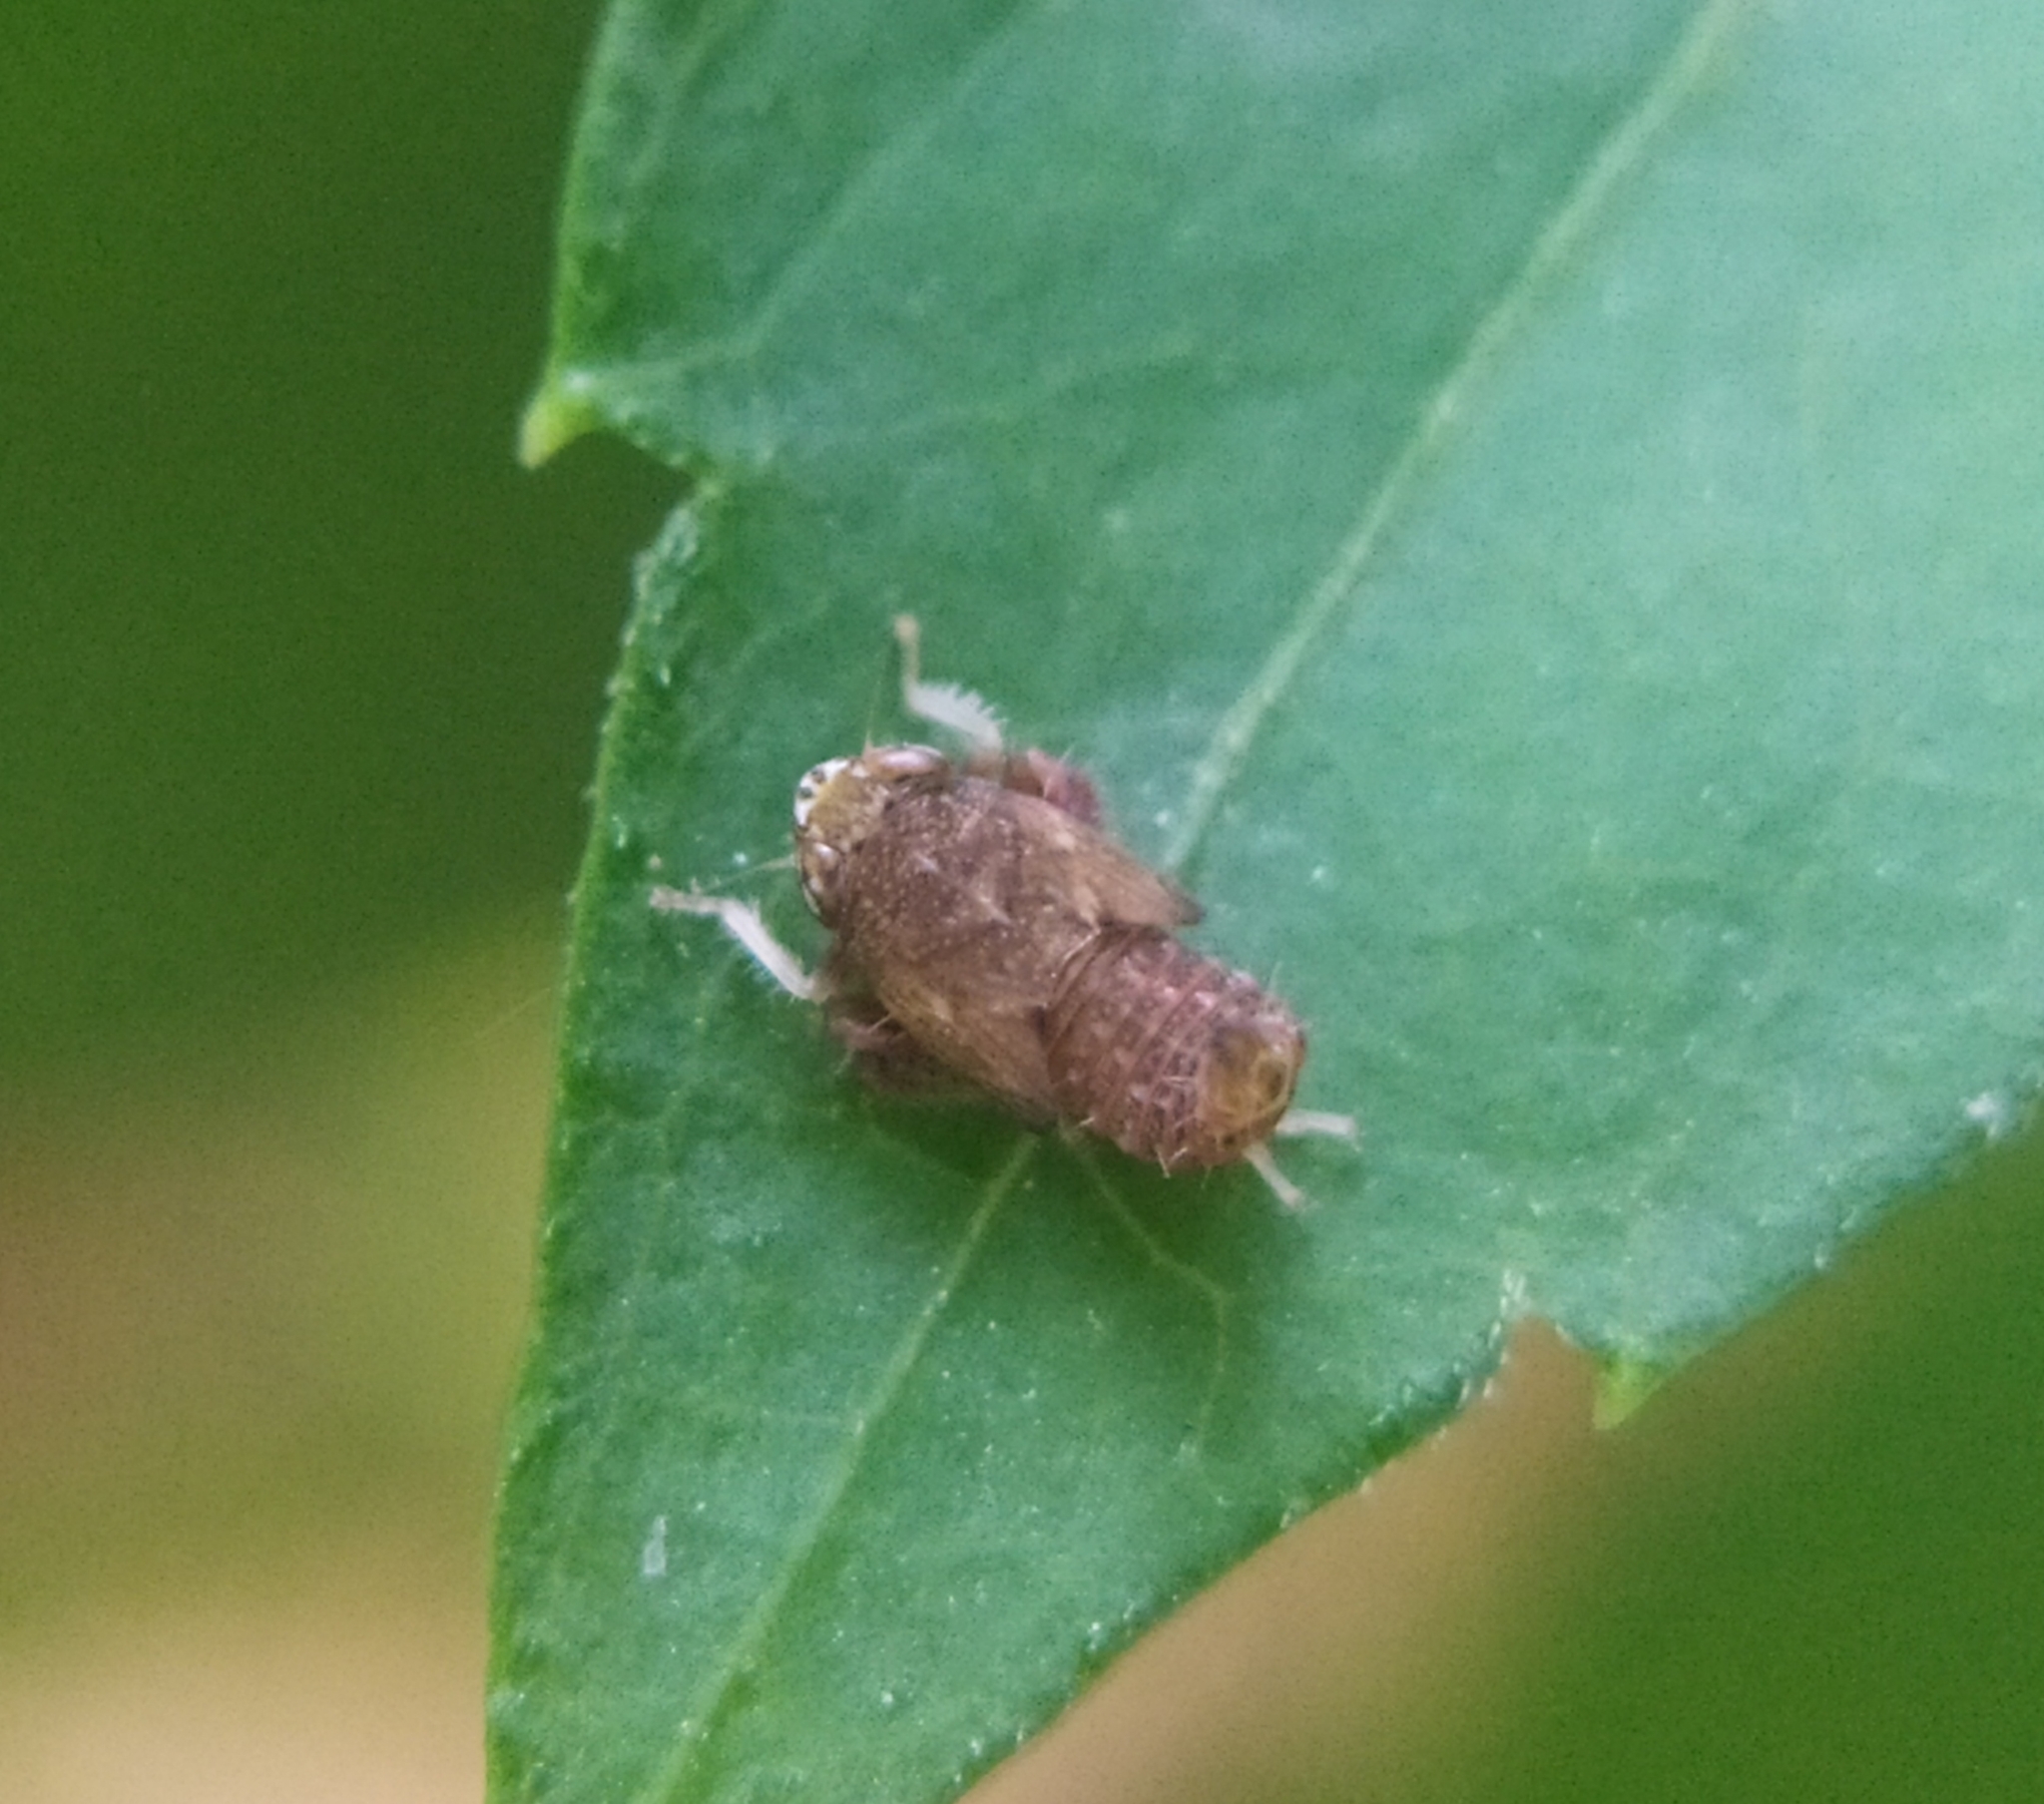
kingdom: Animalia
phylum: Arthropoda
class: Insecta
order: Hemiptera
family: Cicadellidae
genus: Orientus
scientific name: Orientus ishidae
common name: Japanese leafhopper
